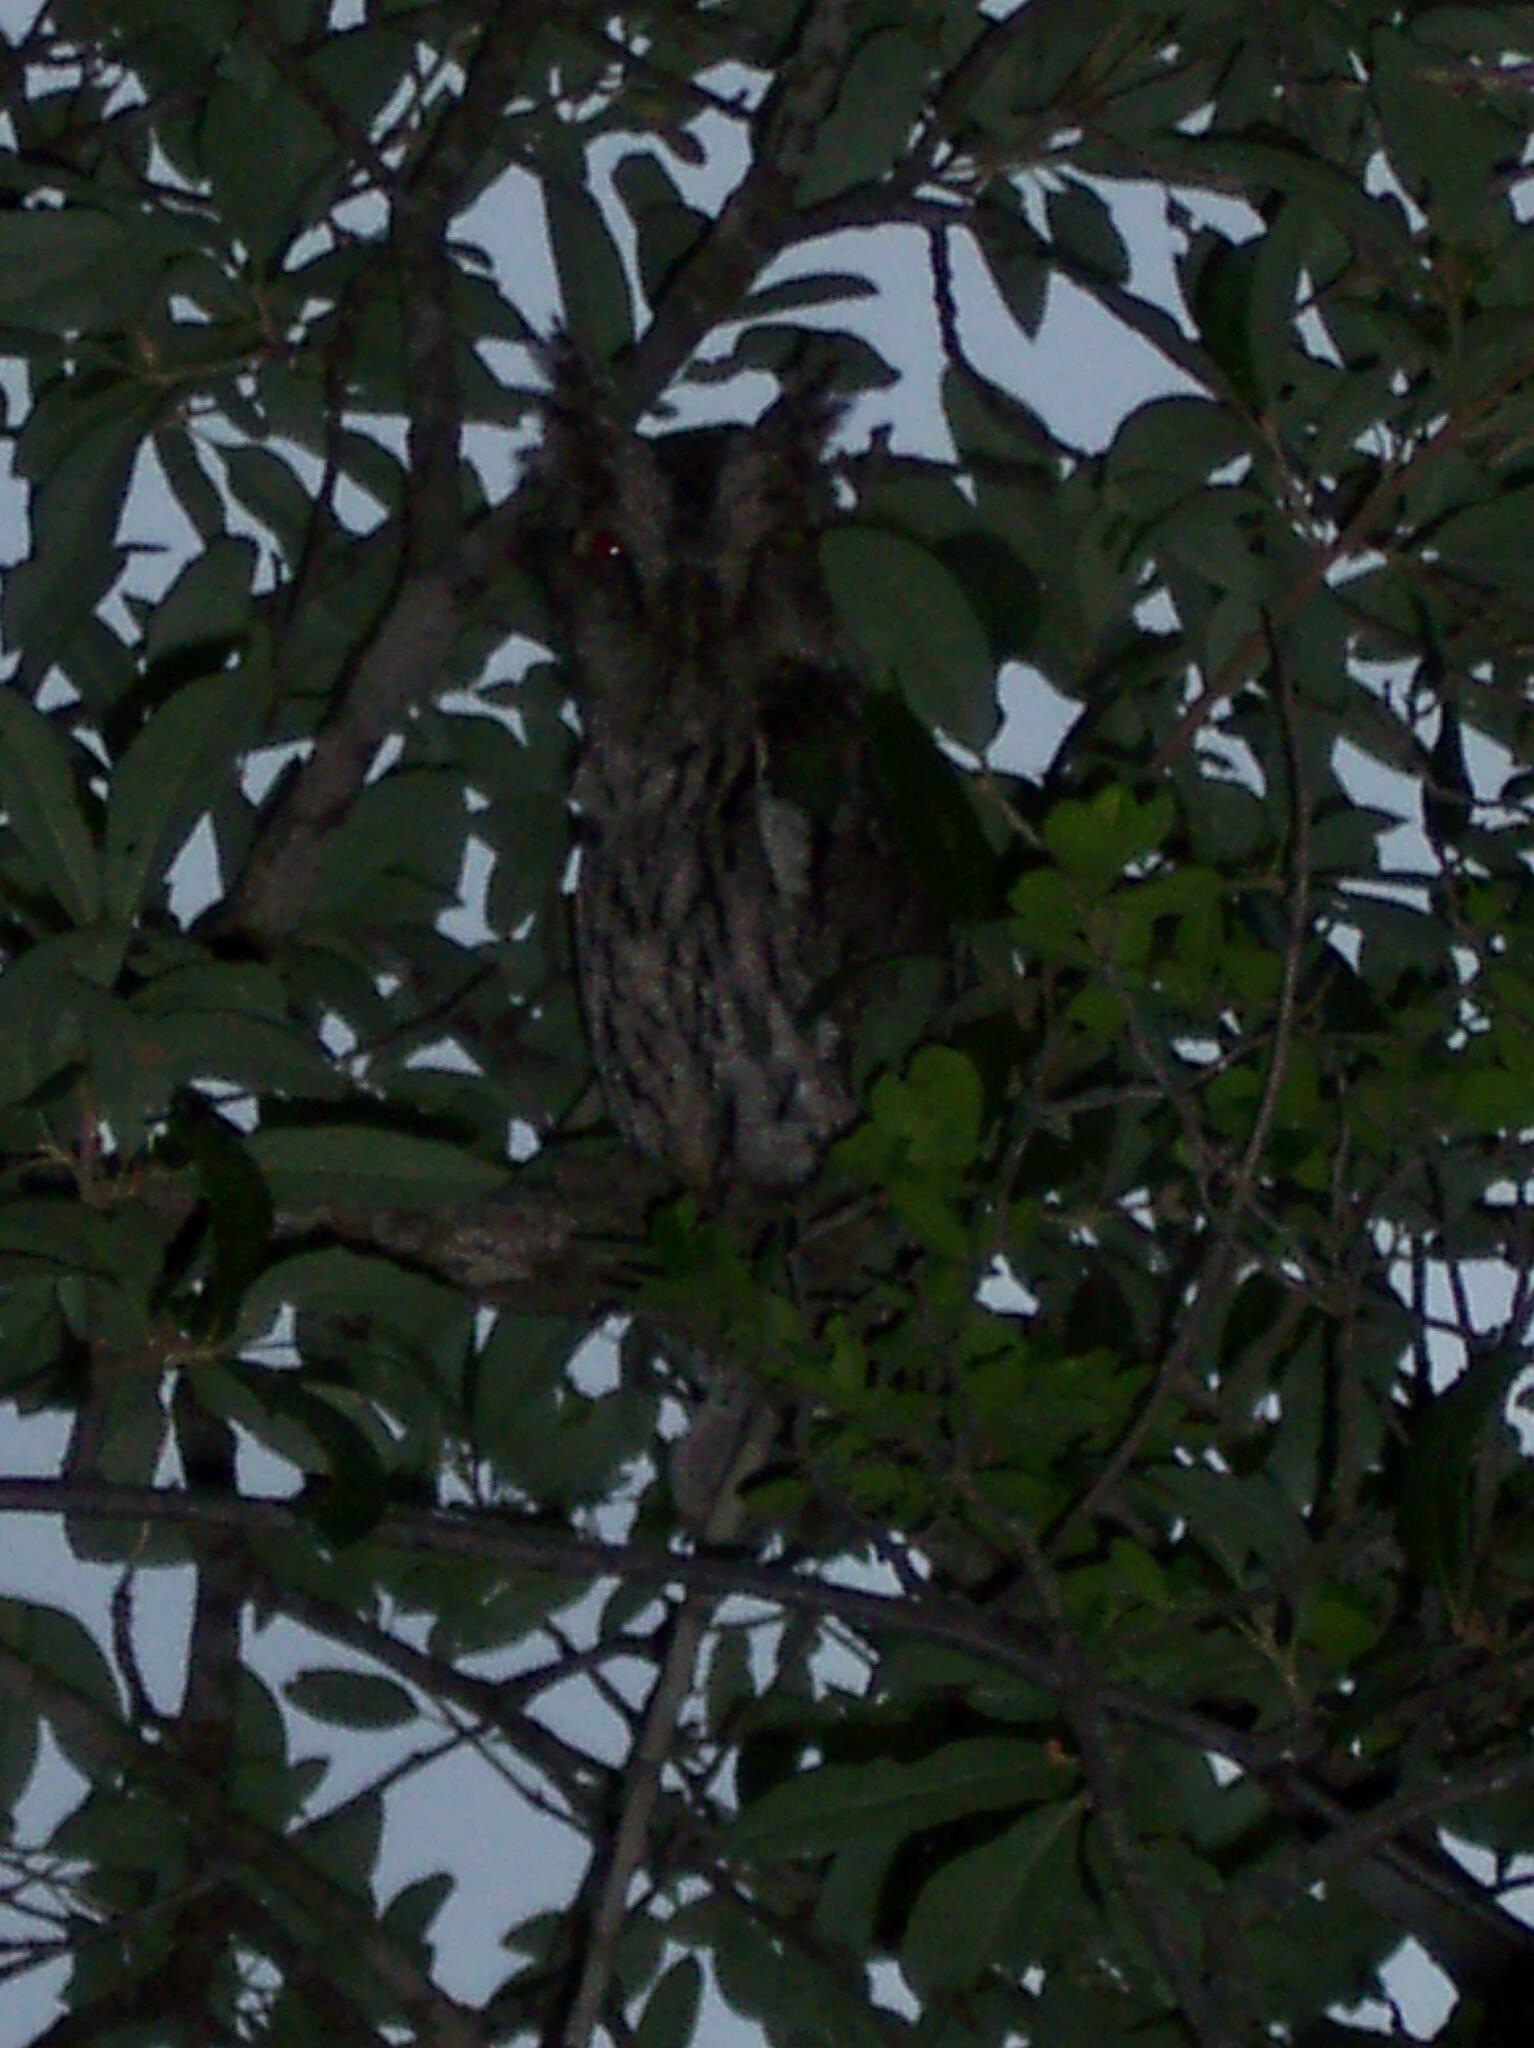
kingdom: Animalia
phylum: Chordata
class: Aves
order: Strigiformes
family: Strigidae
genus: Megascops
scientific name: Megascops asio
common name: Eastern screech-owl
